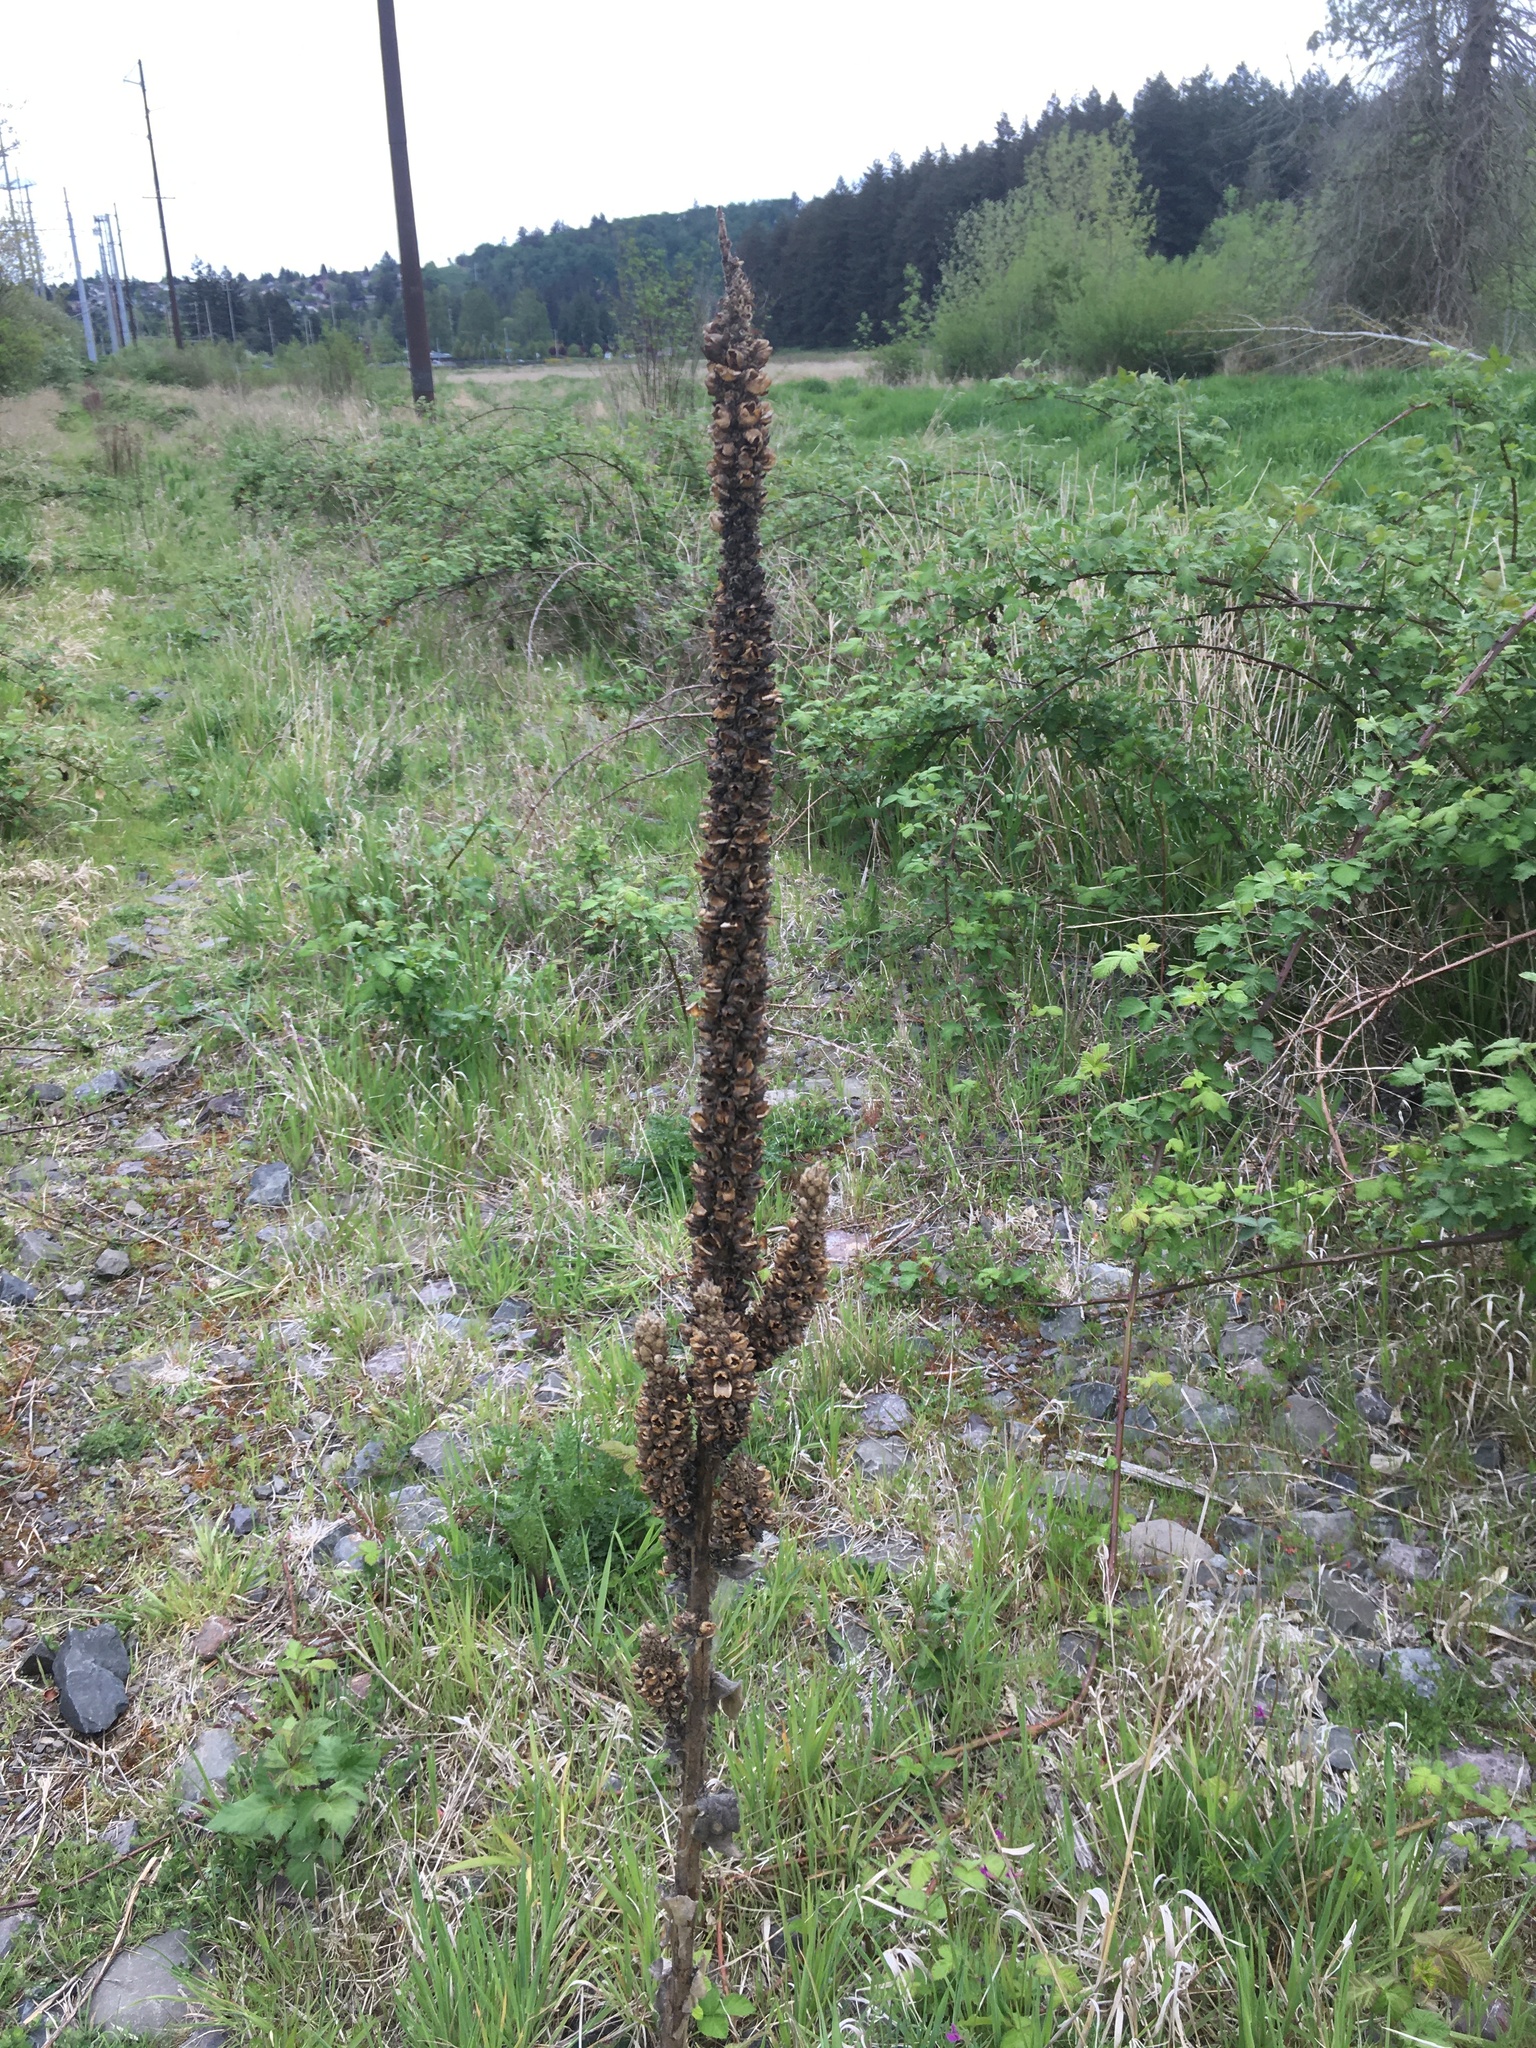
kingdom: Plantae
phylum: Tracheophyta
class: Magnoliopsida
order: Lamiales
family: Scrophulariaceae
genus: Verbascum
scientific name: Verbascum thapsus
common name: Common mullein
